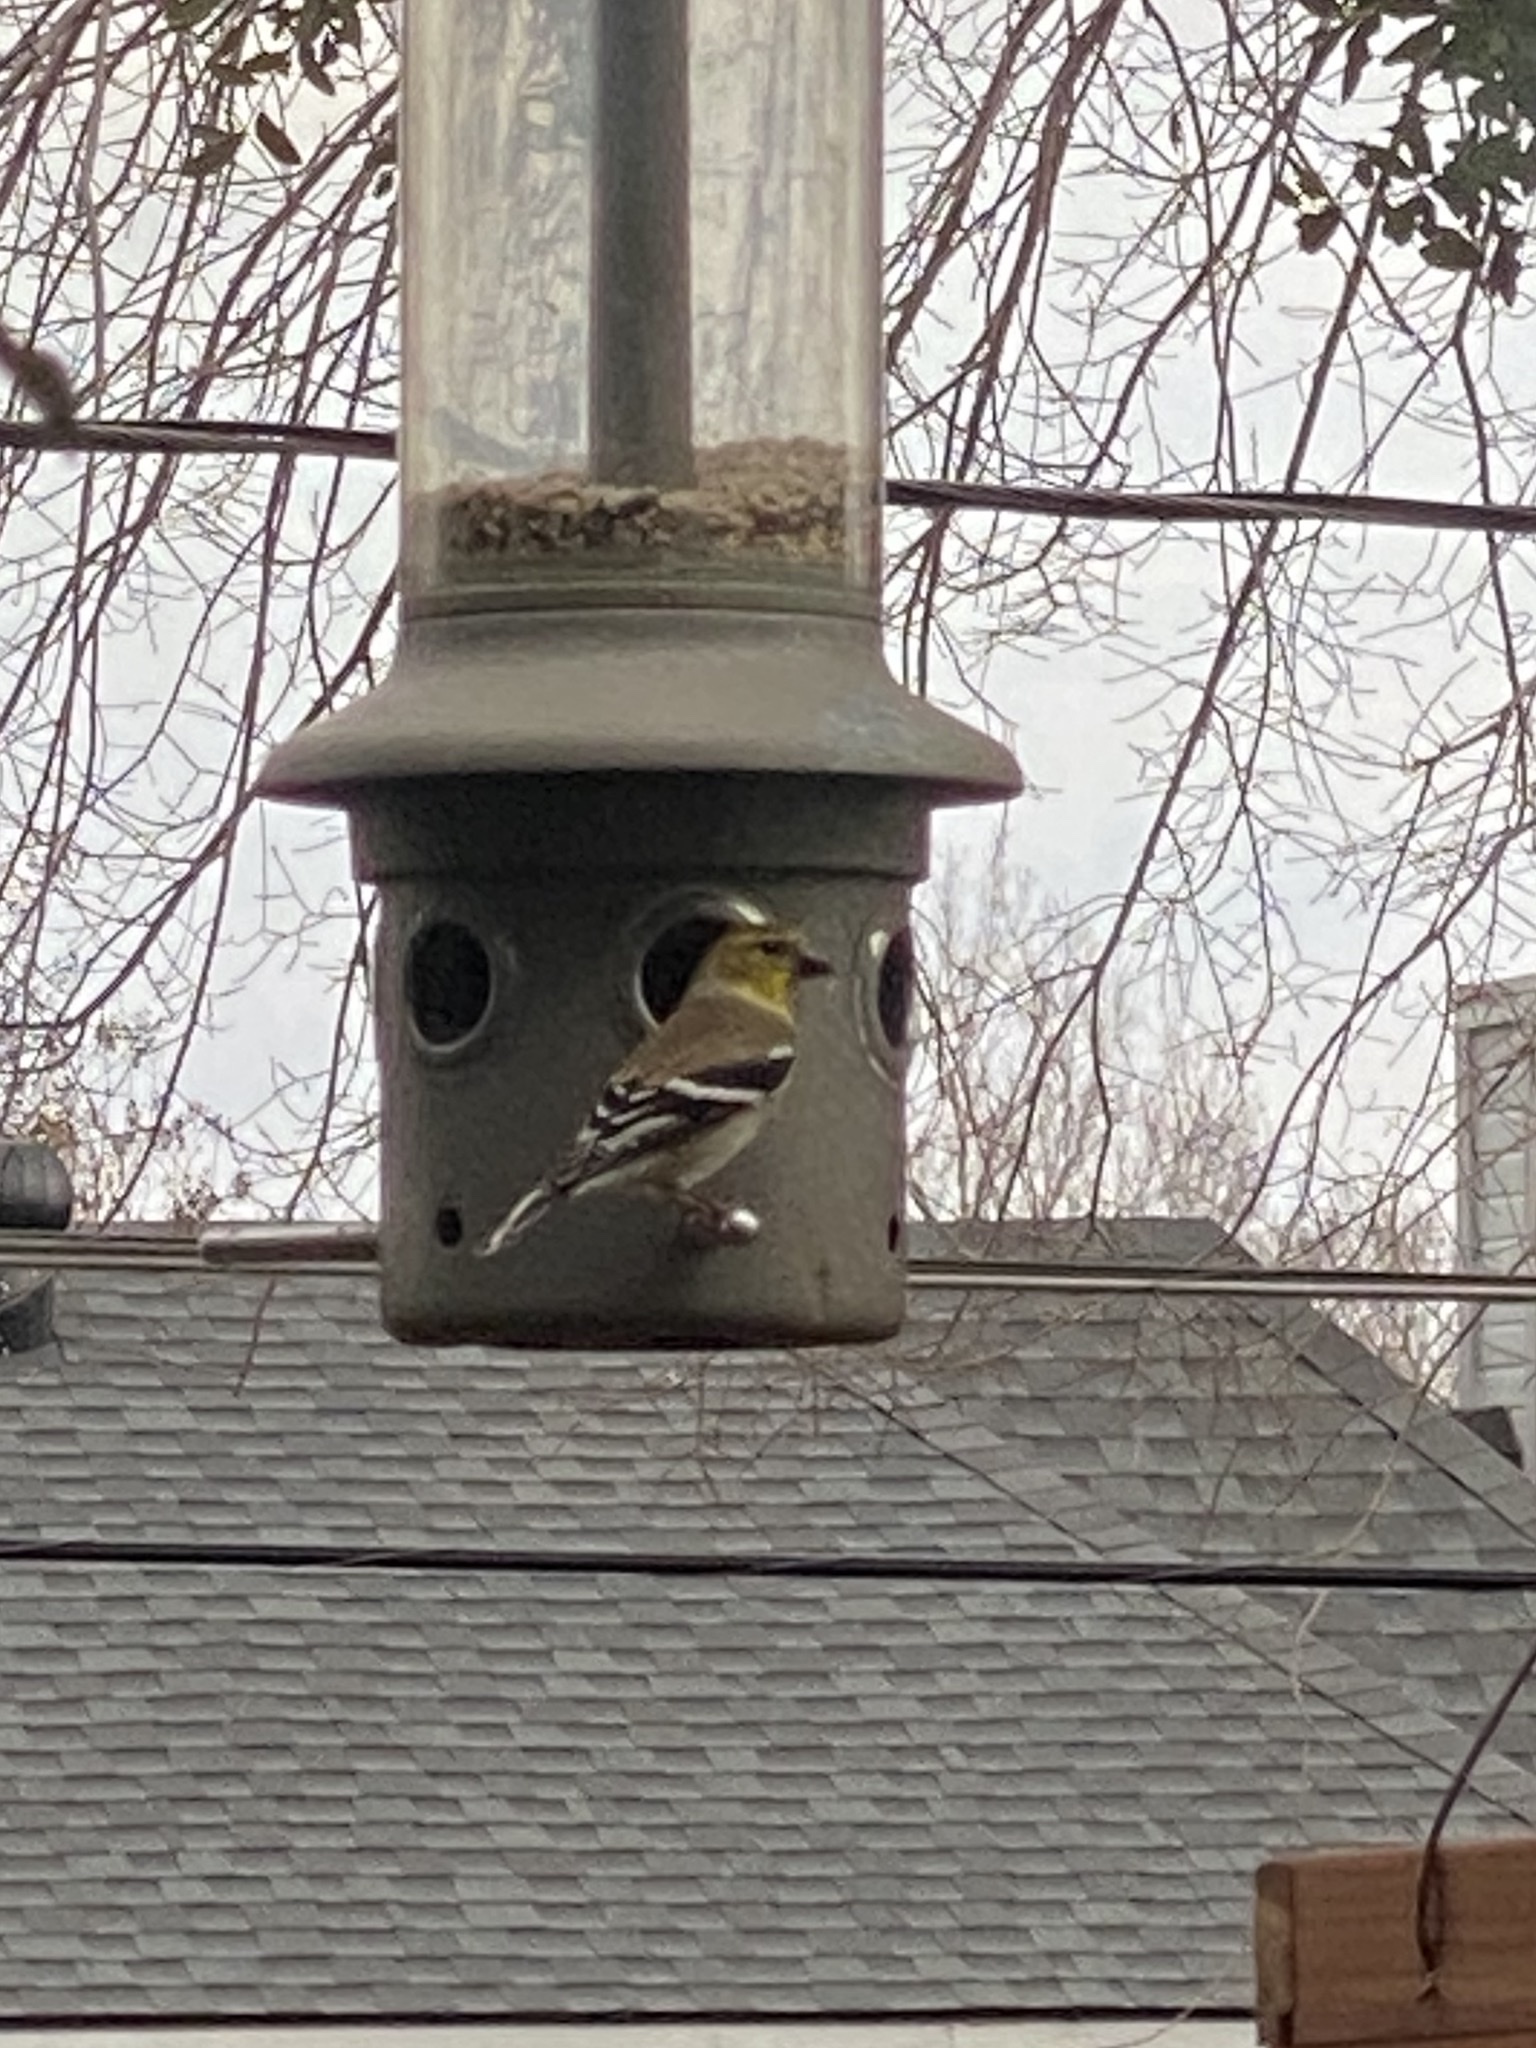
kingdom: Animalia
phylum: Chordata
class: Aves
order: Passeriformes
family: Fringillidae
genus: Spinus
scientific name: Spinus tristis
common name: American goldfinch
